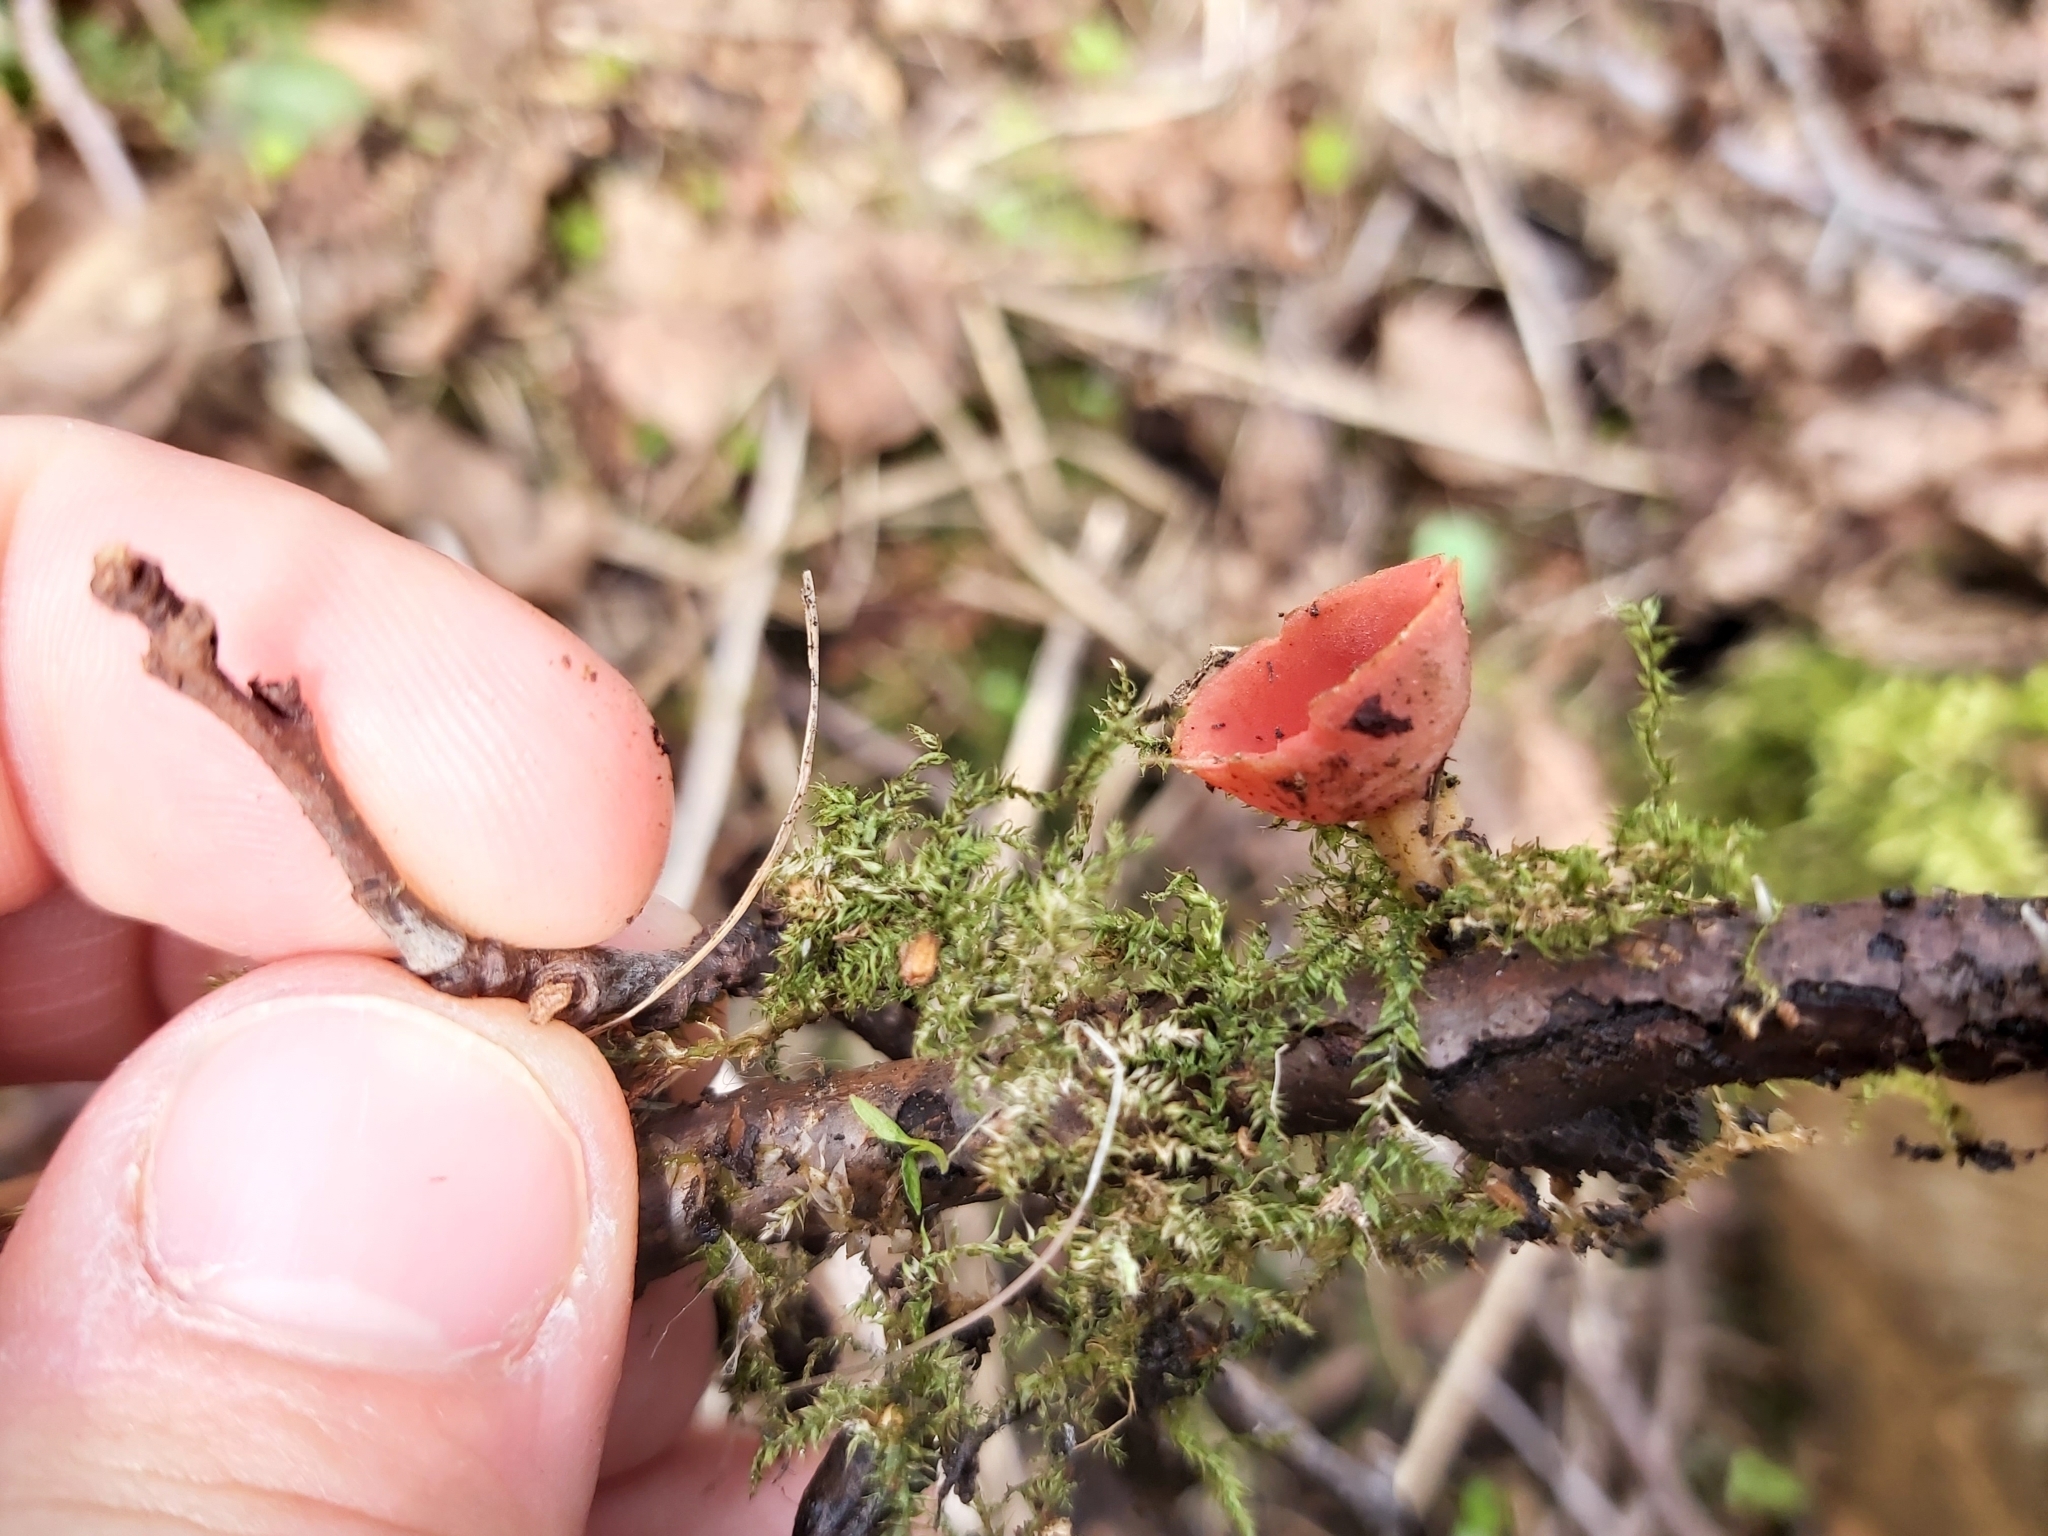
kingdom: Fungi
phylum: Ascomycota
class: Pezizomycetes
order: Pezizales
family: Sarcoscyphaceae
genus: Sarcoscypha
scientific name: Sarcoscypha
